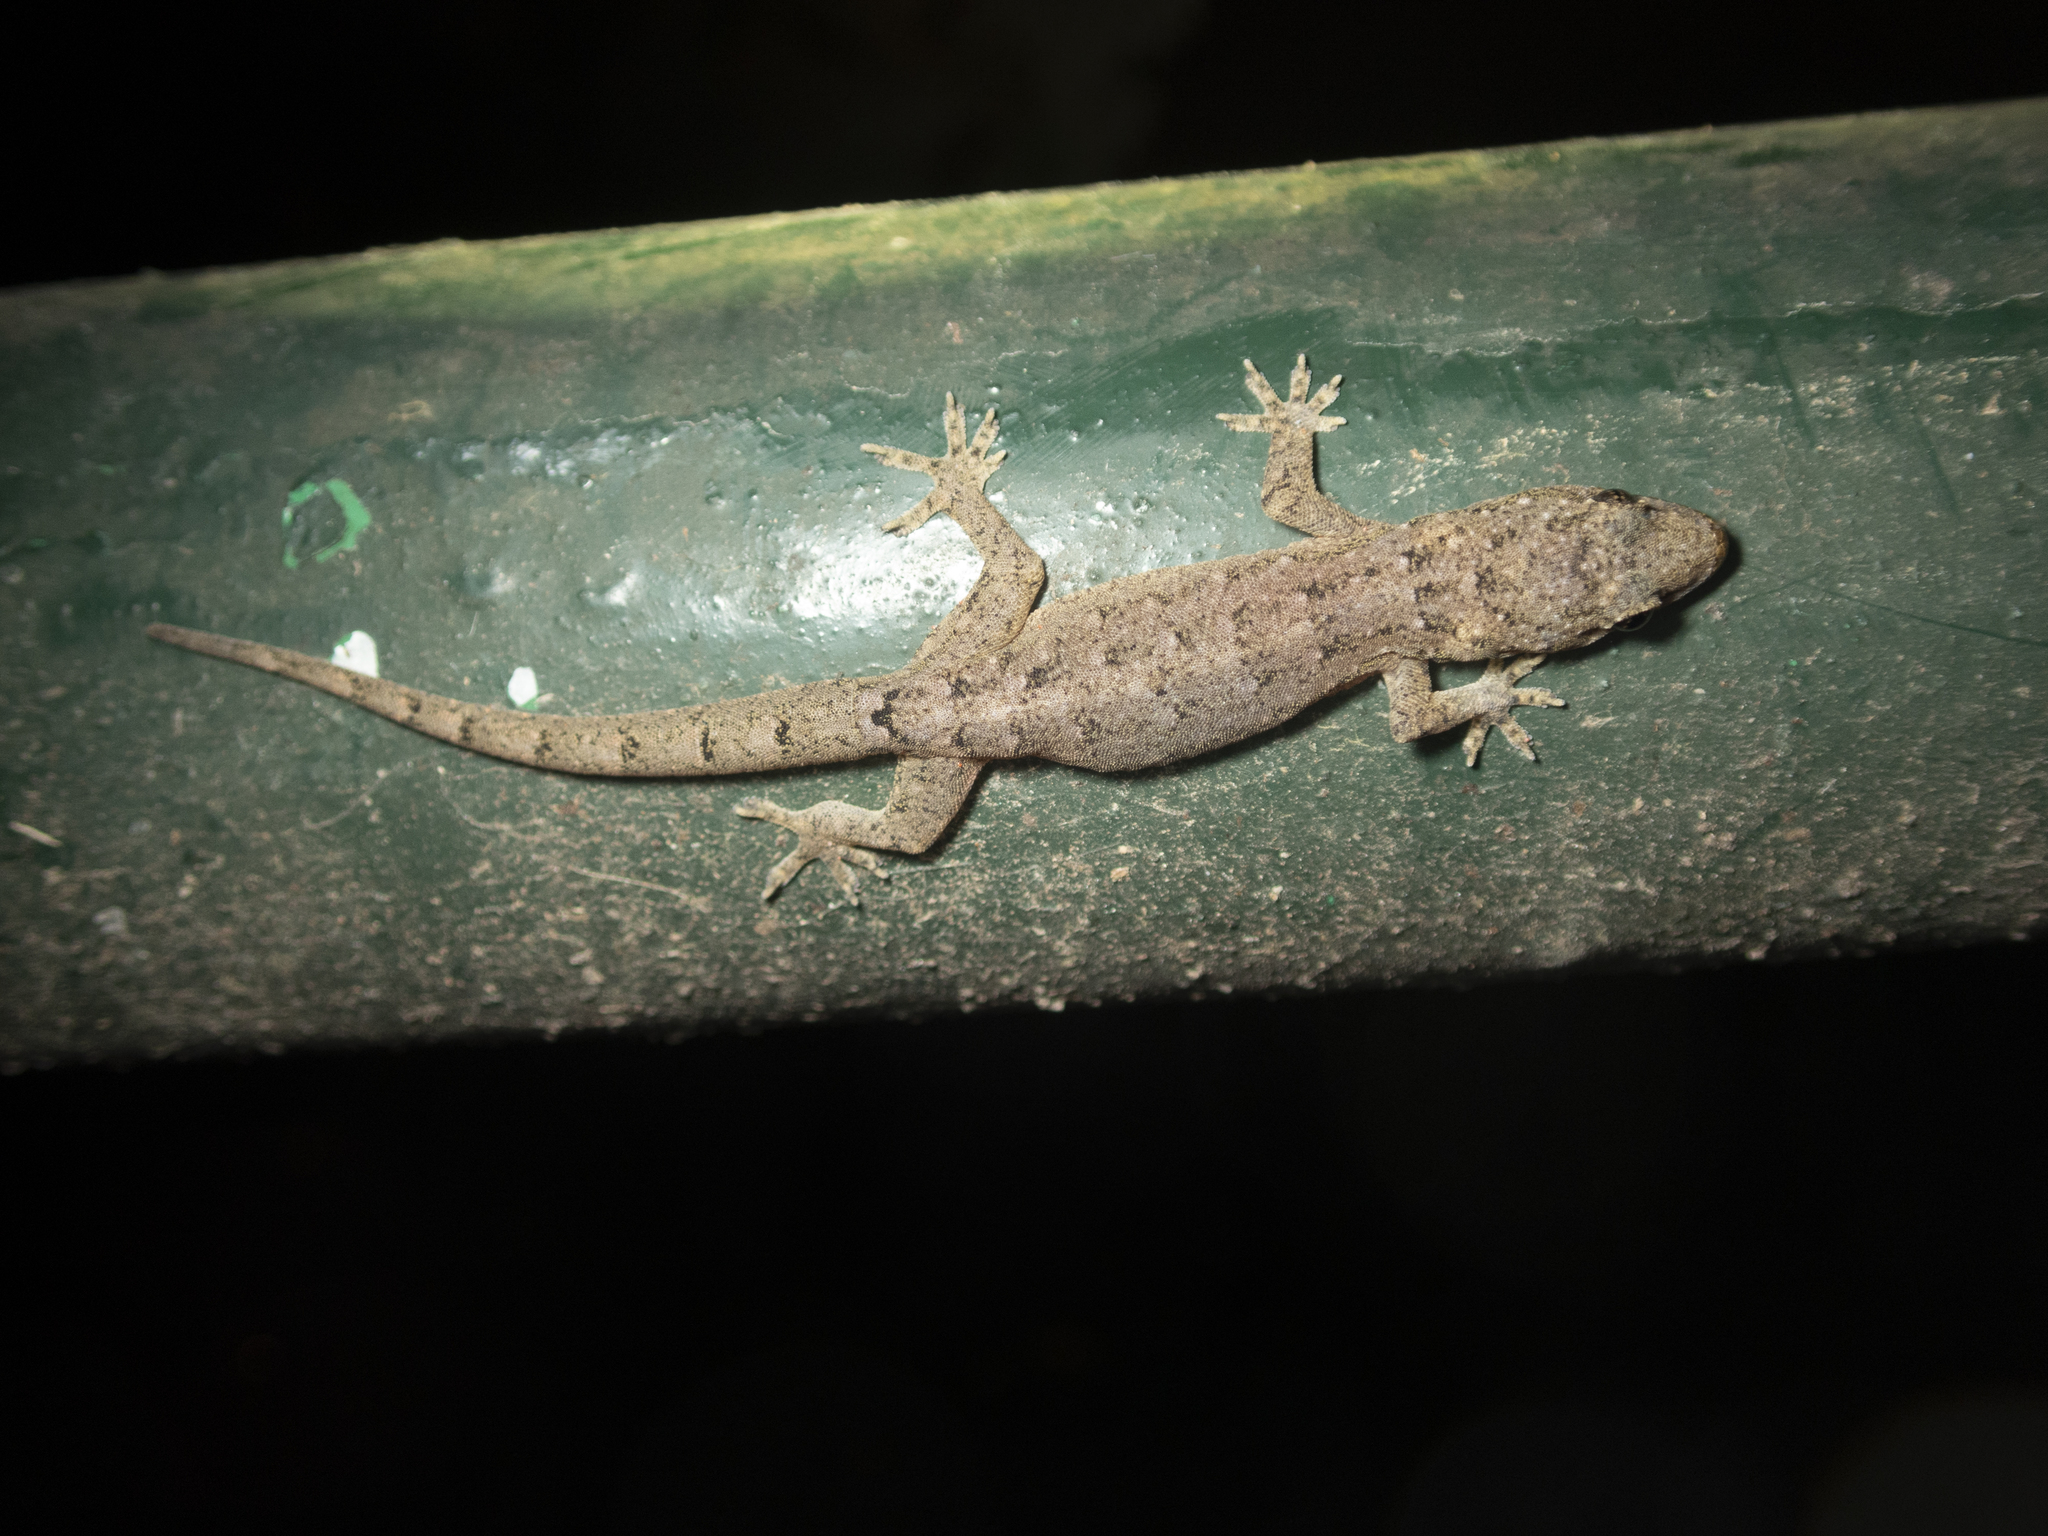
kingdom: Animalia
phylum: Chordata
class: Squamata
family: Gekkonidae
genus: Hemidactylus
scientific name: Hemidactylus bowringii
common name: Oriental leaf-toed gecko
